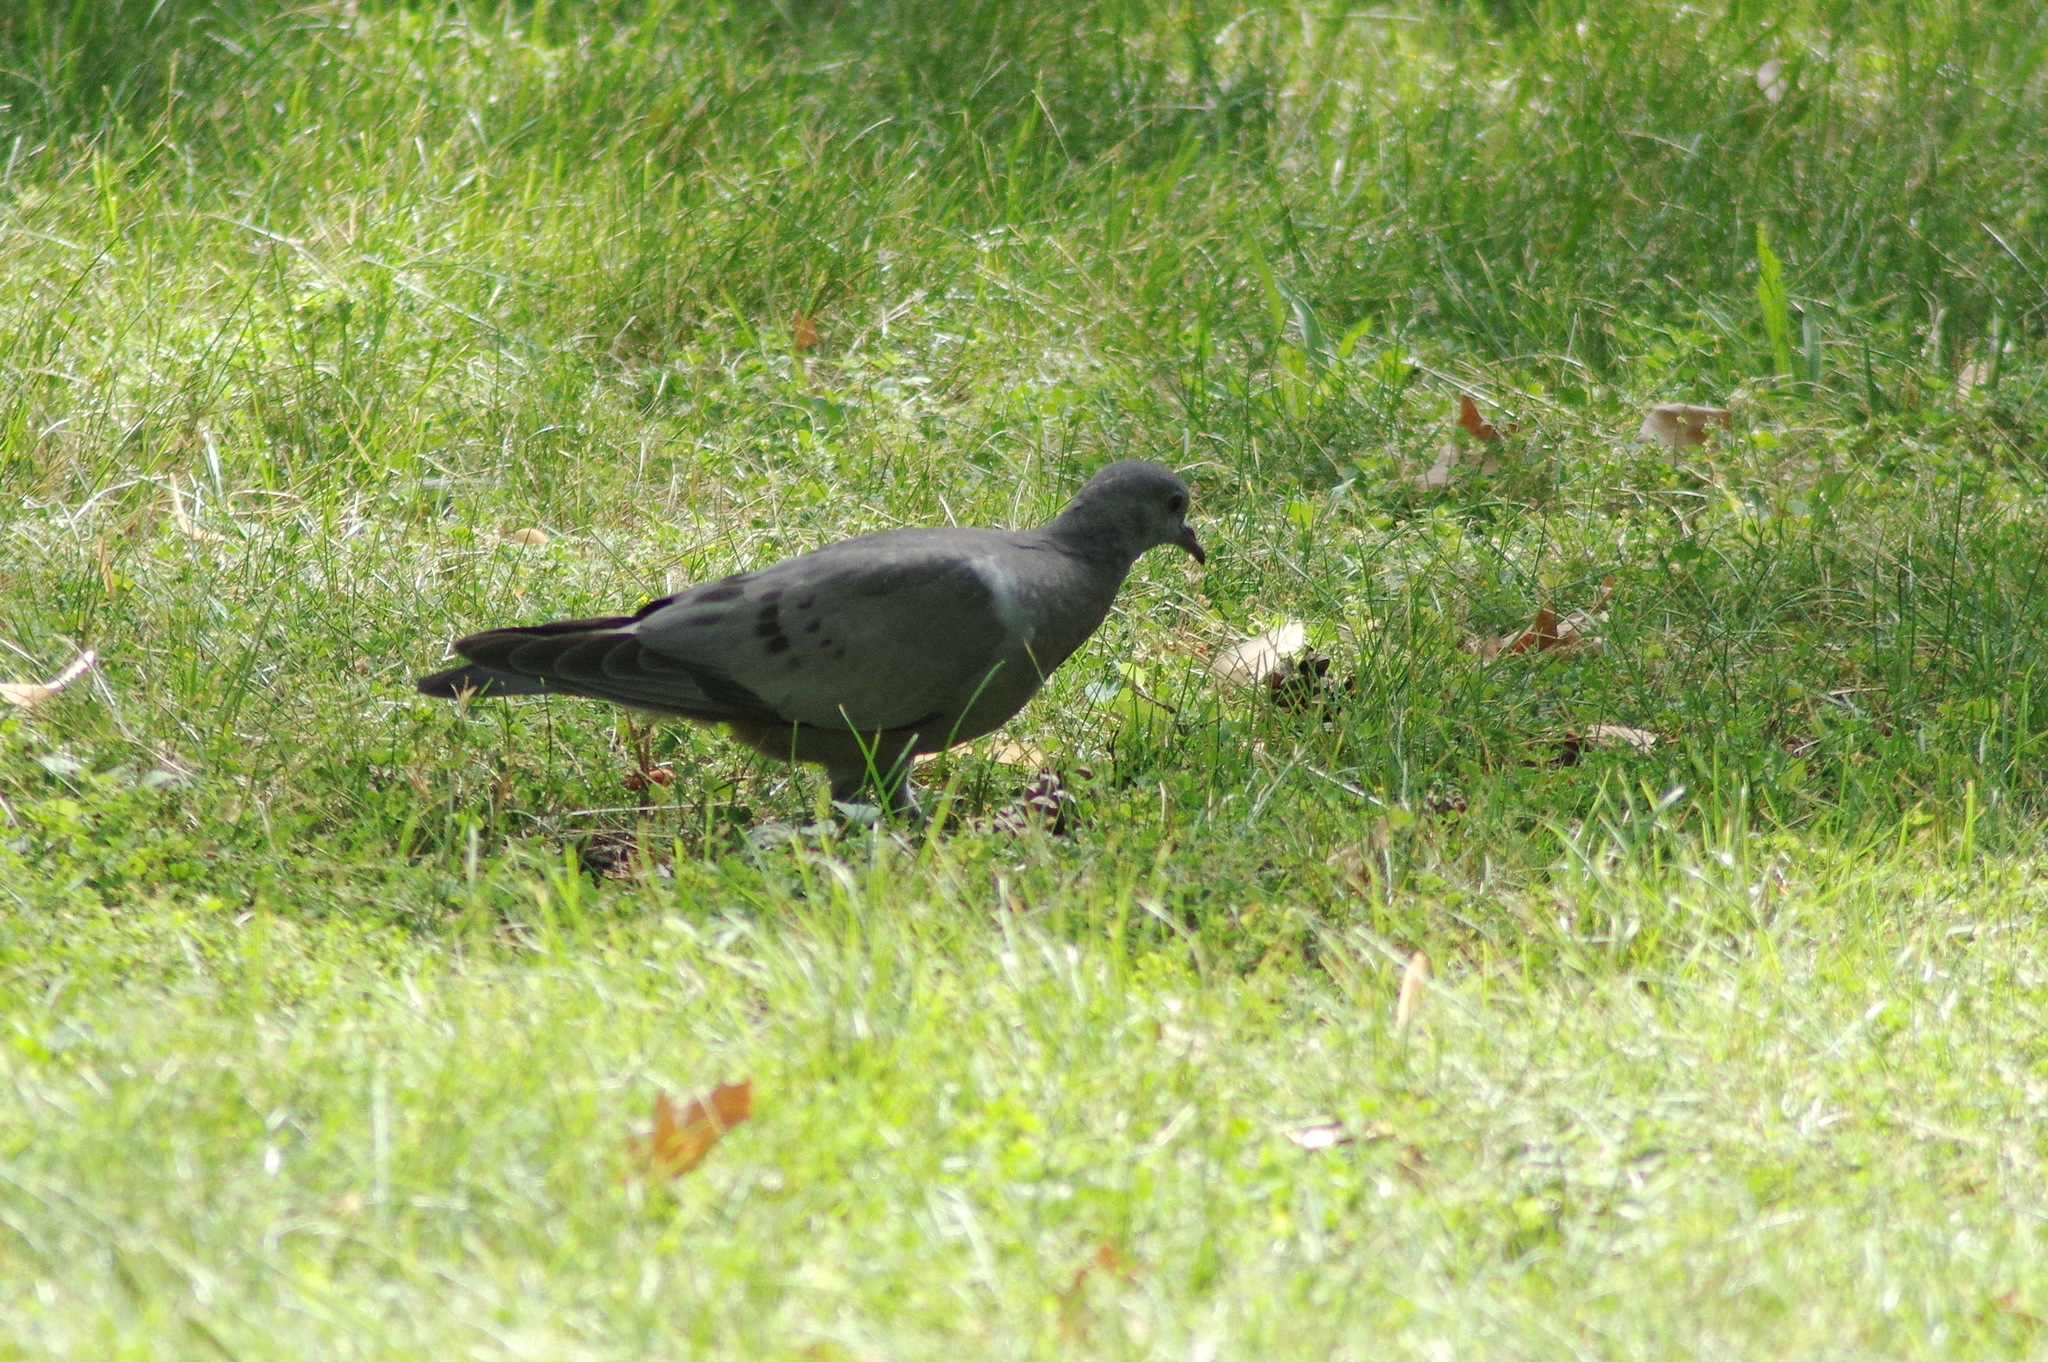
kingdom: Animalia
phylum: Chordata
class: Aves
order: Columbiformes
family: Columbidae
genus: Columba
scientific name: Columba oenas
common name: Stock dove
